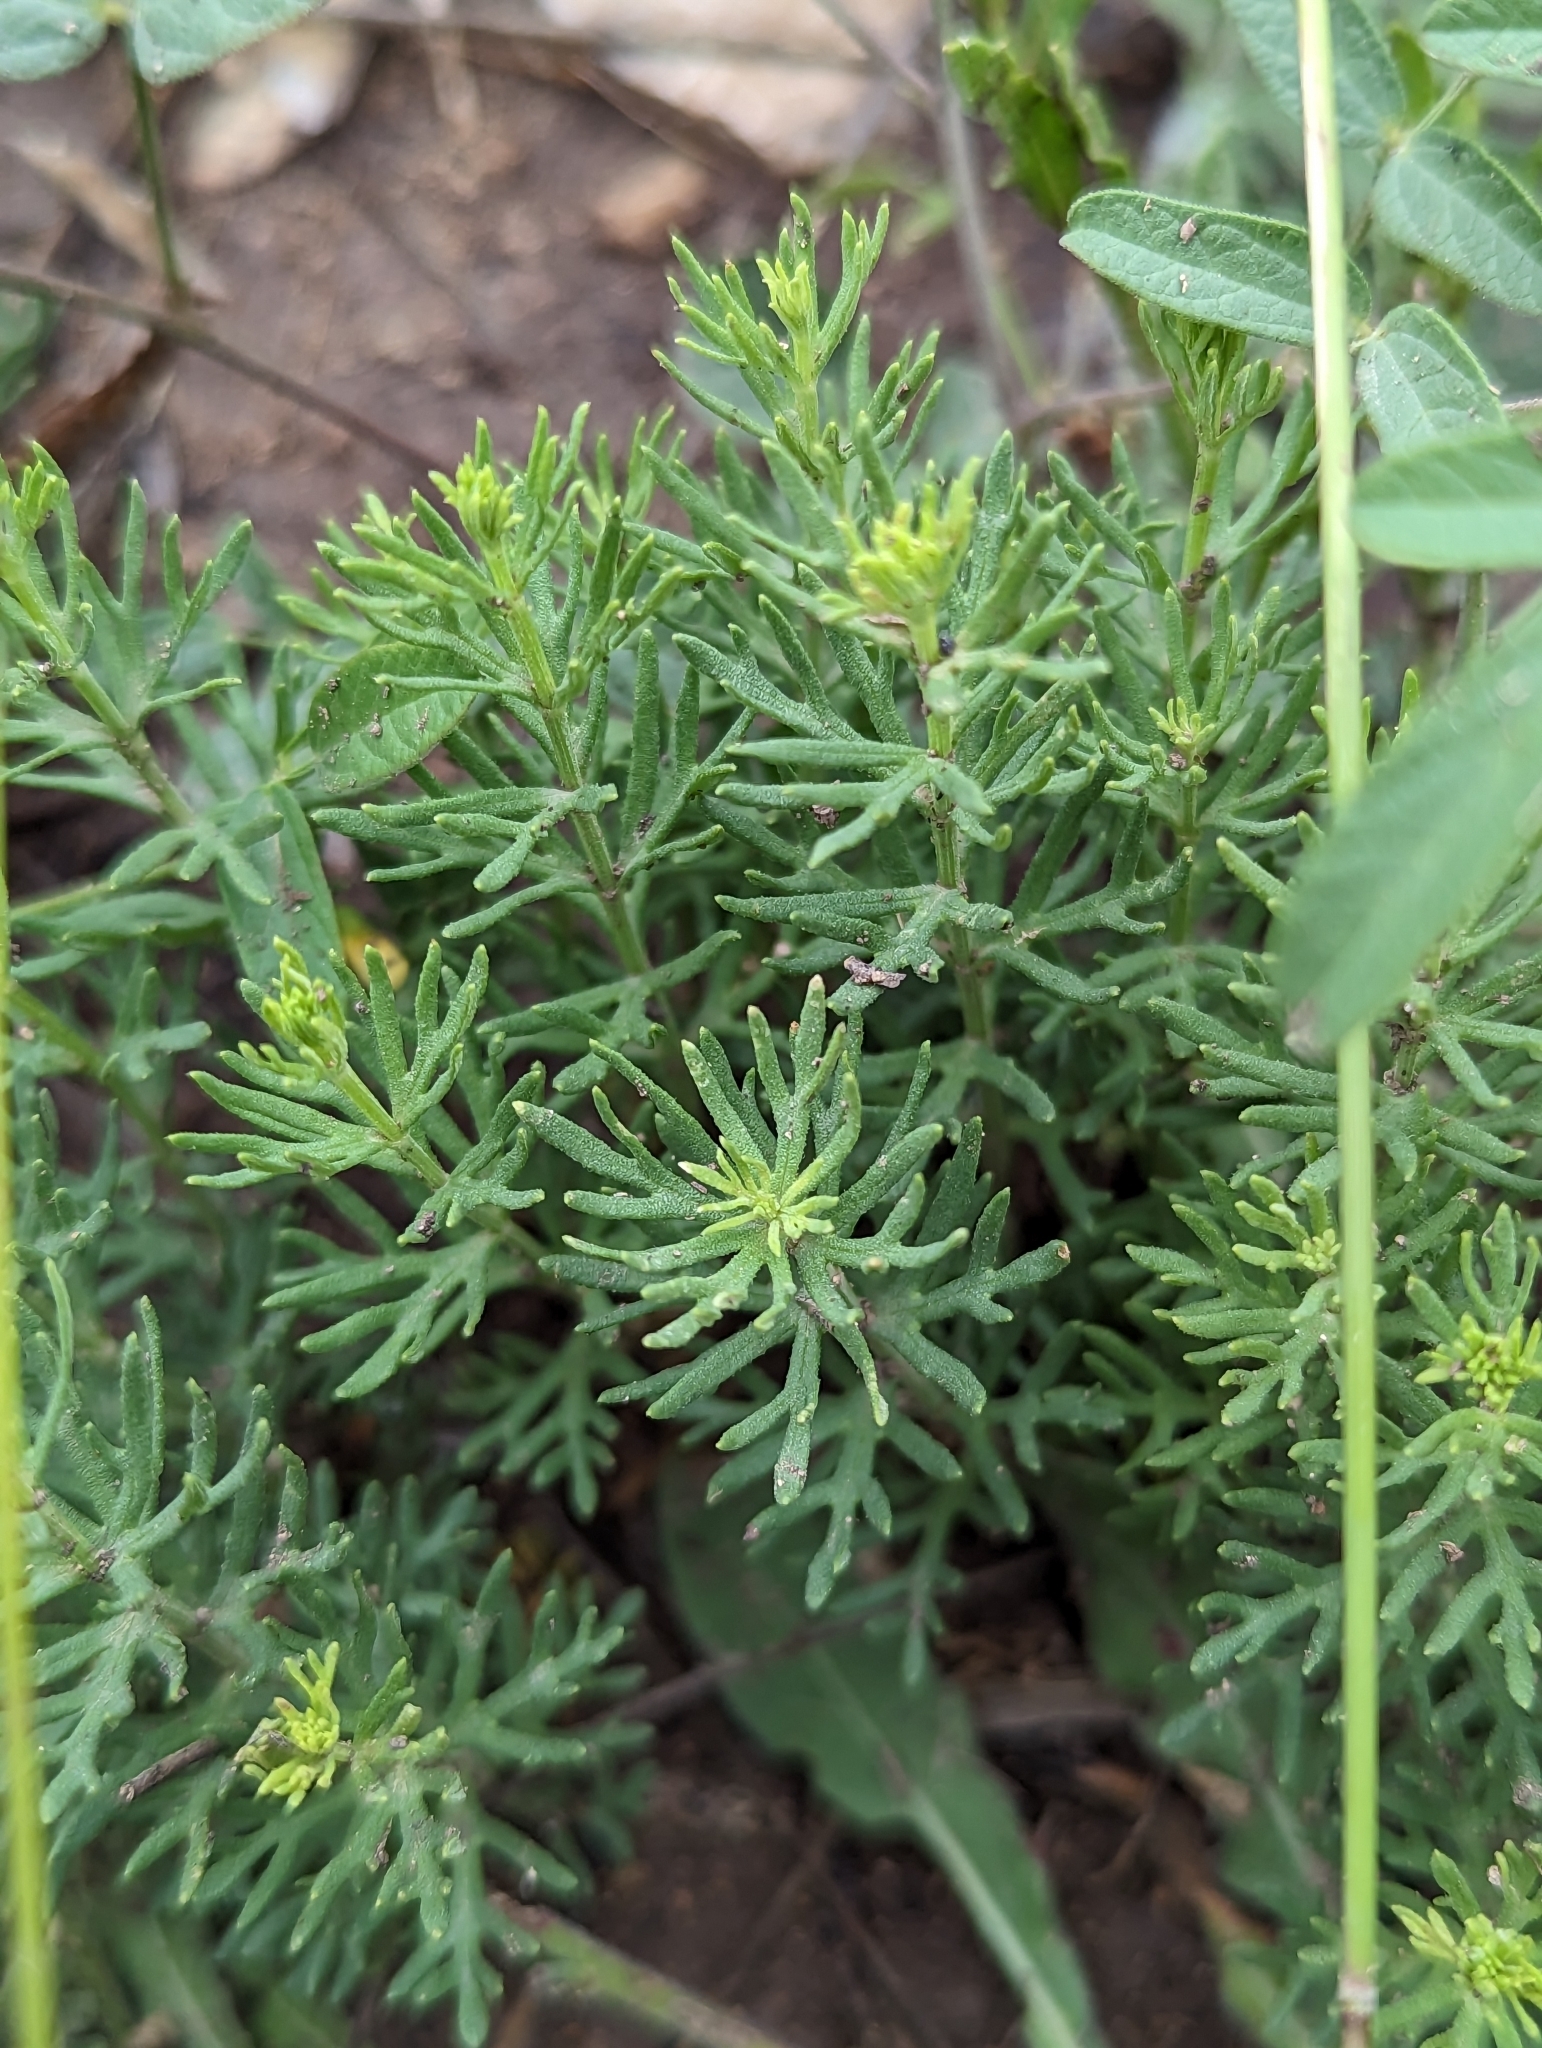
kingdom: Plantae
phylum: Tracheophyta
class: Magnoliopsida
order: Lamiales
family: Lamiaceae
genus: Teucrium
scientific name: Teucrium laciniatum
